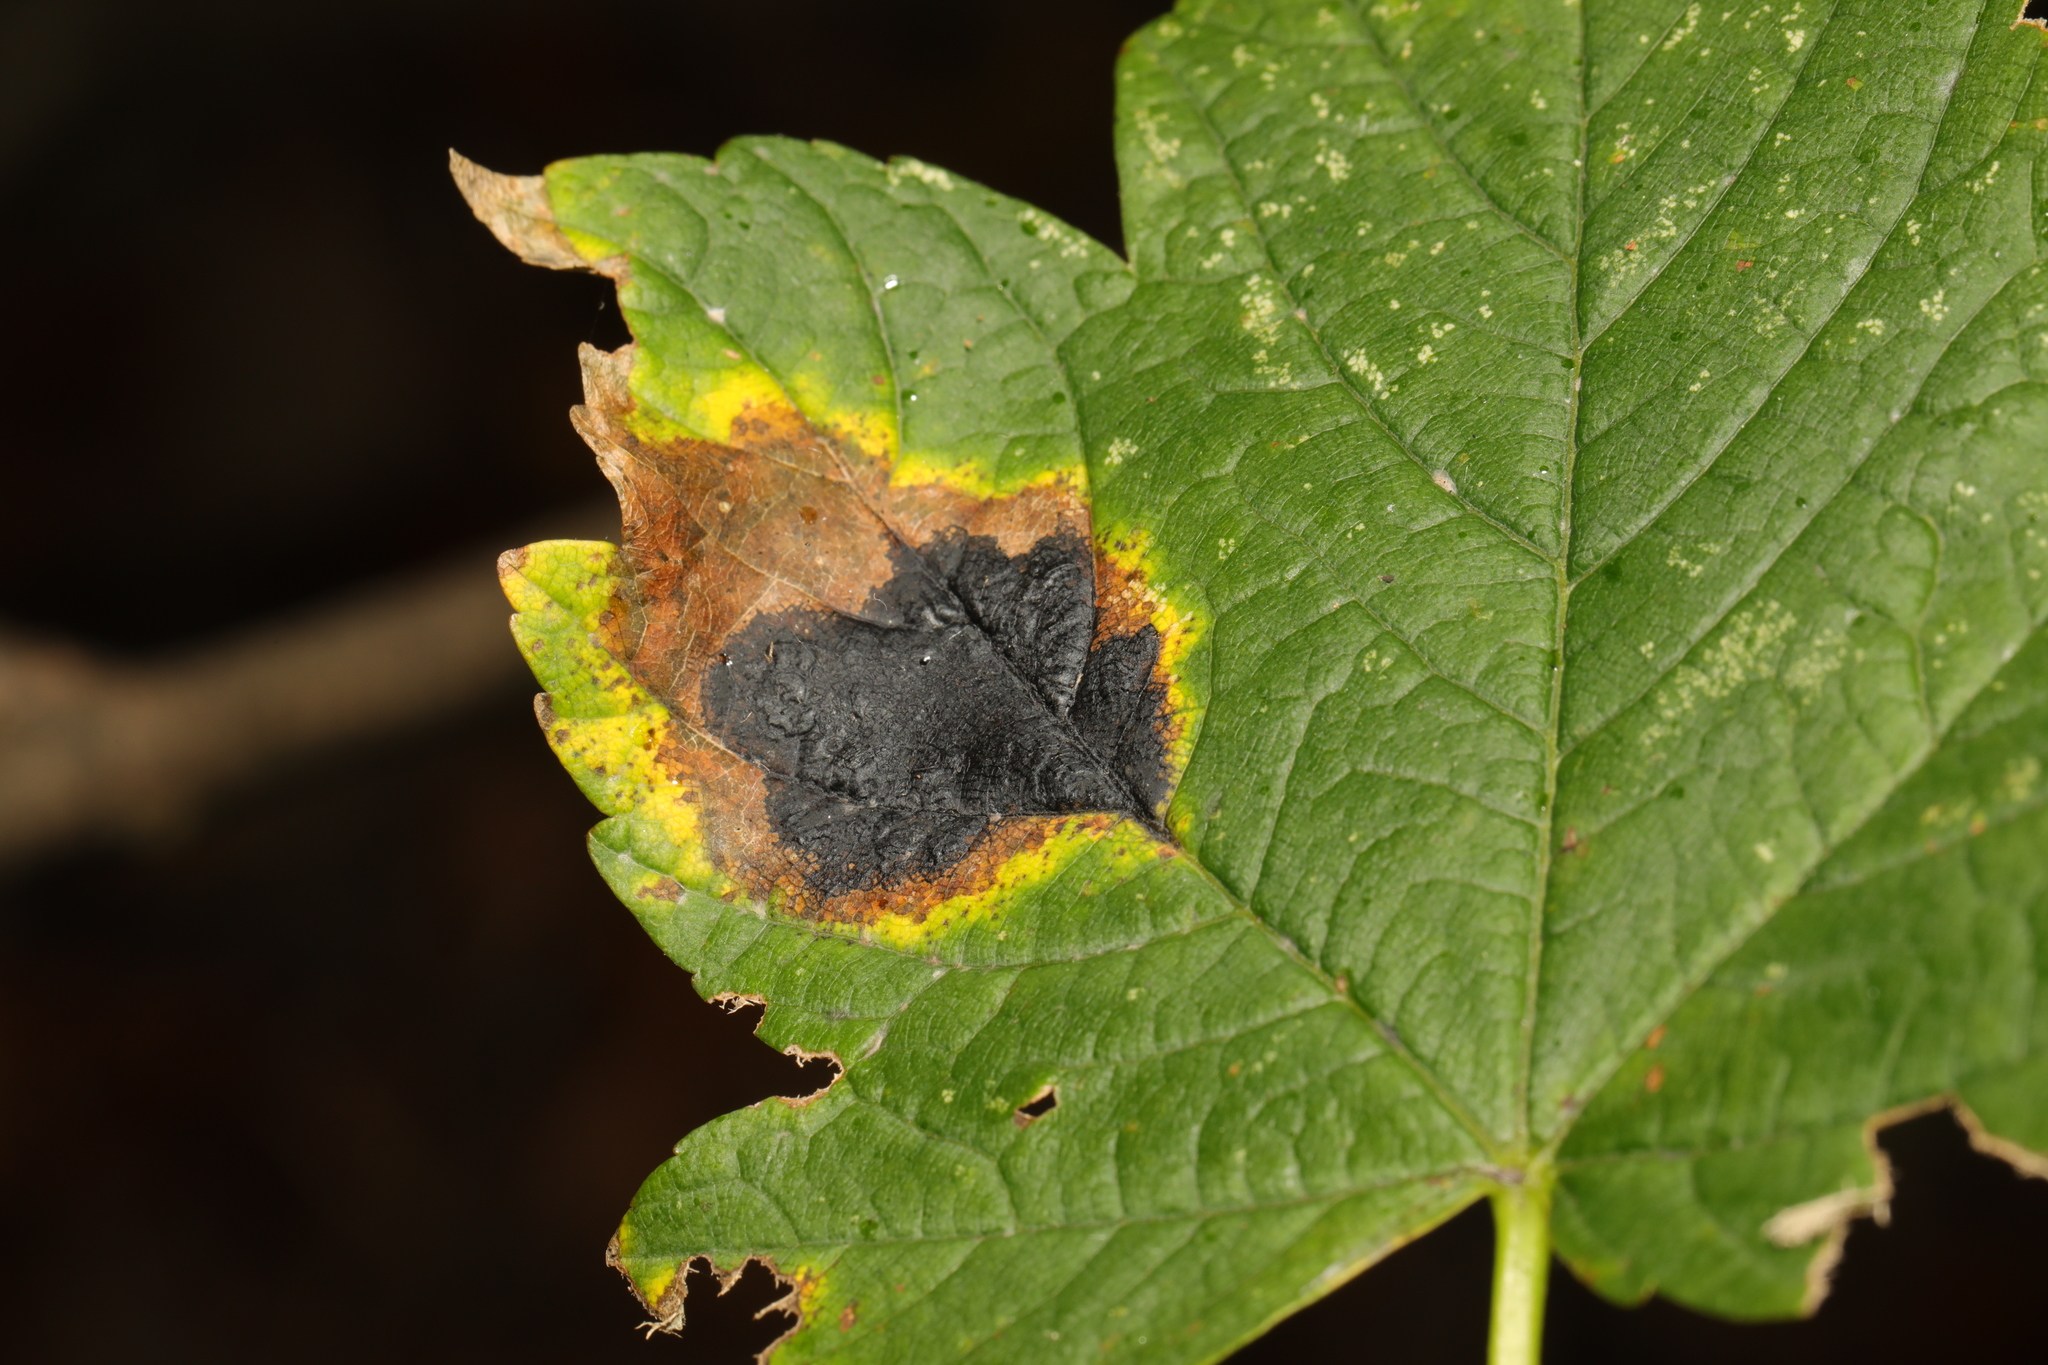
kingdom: Fungi
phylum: Ascomycota
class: Leotiomycetes
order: Rhytismatales
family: Rhytismataceae
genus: Rhytisma
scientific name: Rhytisma acerinum
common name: European tar spot
